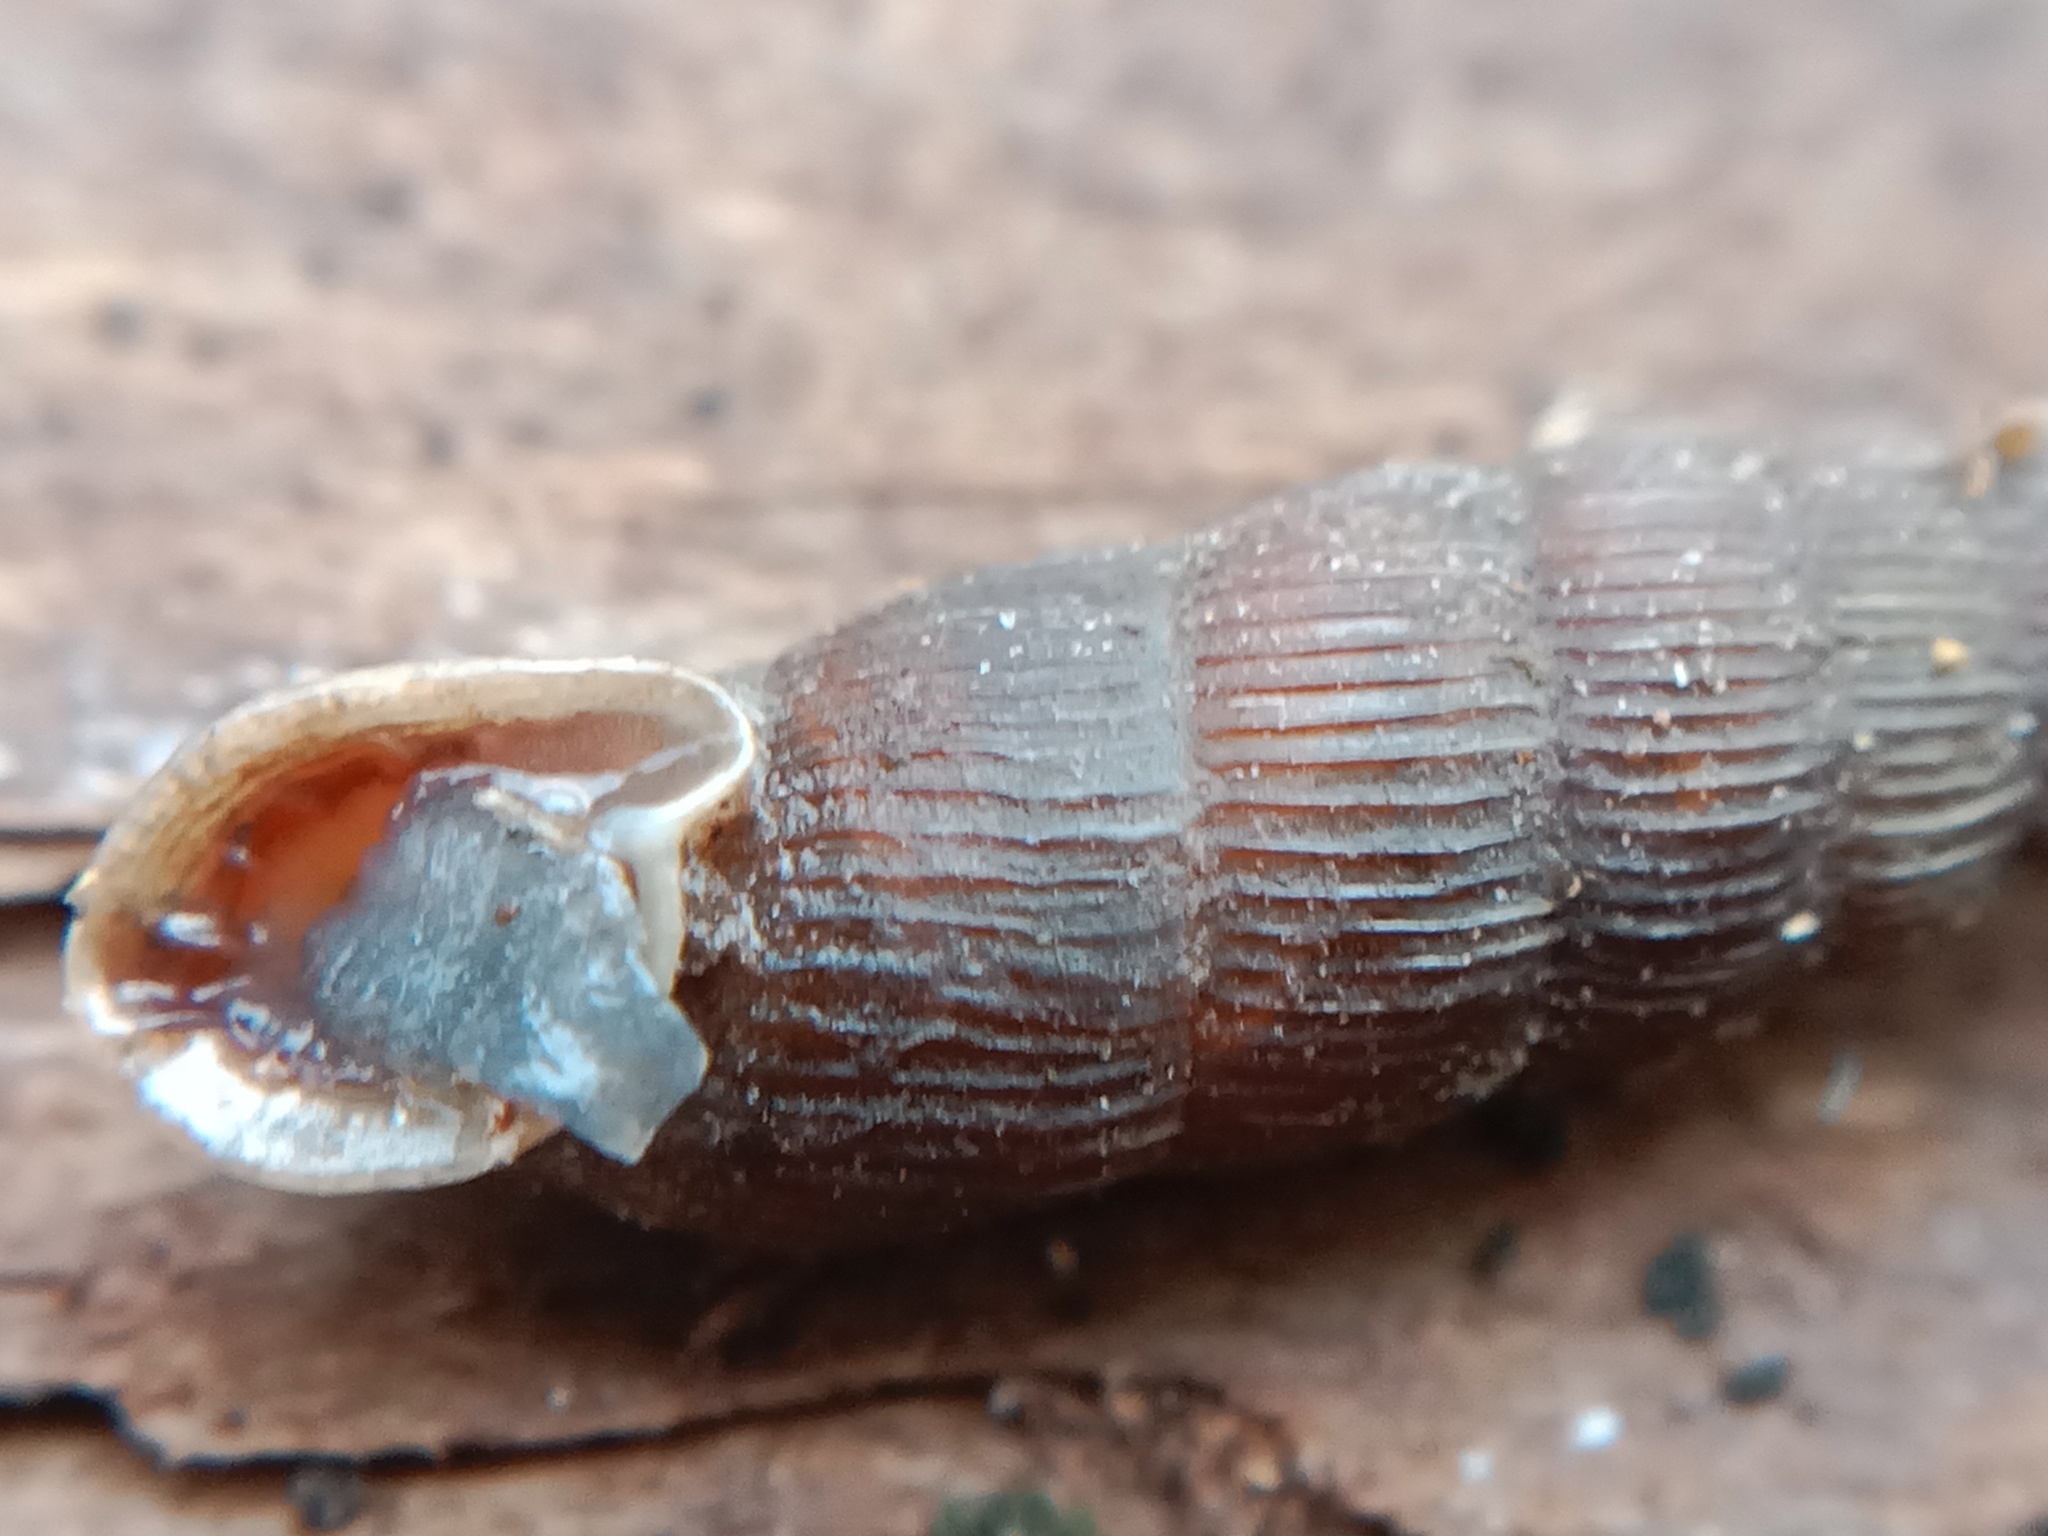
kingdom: Animalia
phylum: Mollusca
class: Gastropoda
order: Stylommatophora
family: Clausiliidae
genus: Laciniaria
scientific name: Laciniaria plicata
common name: Single-lipped door snail
